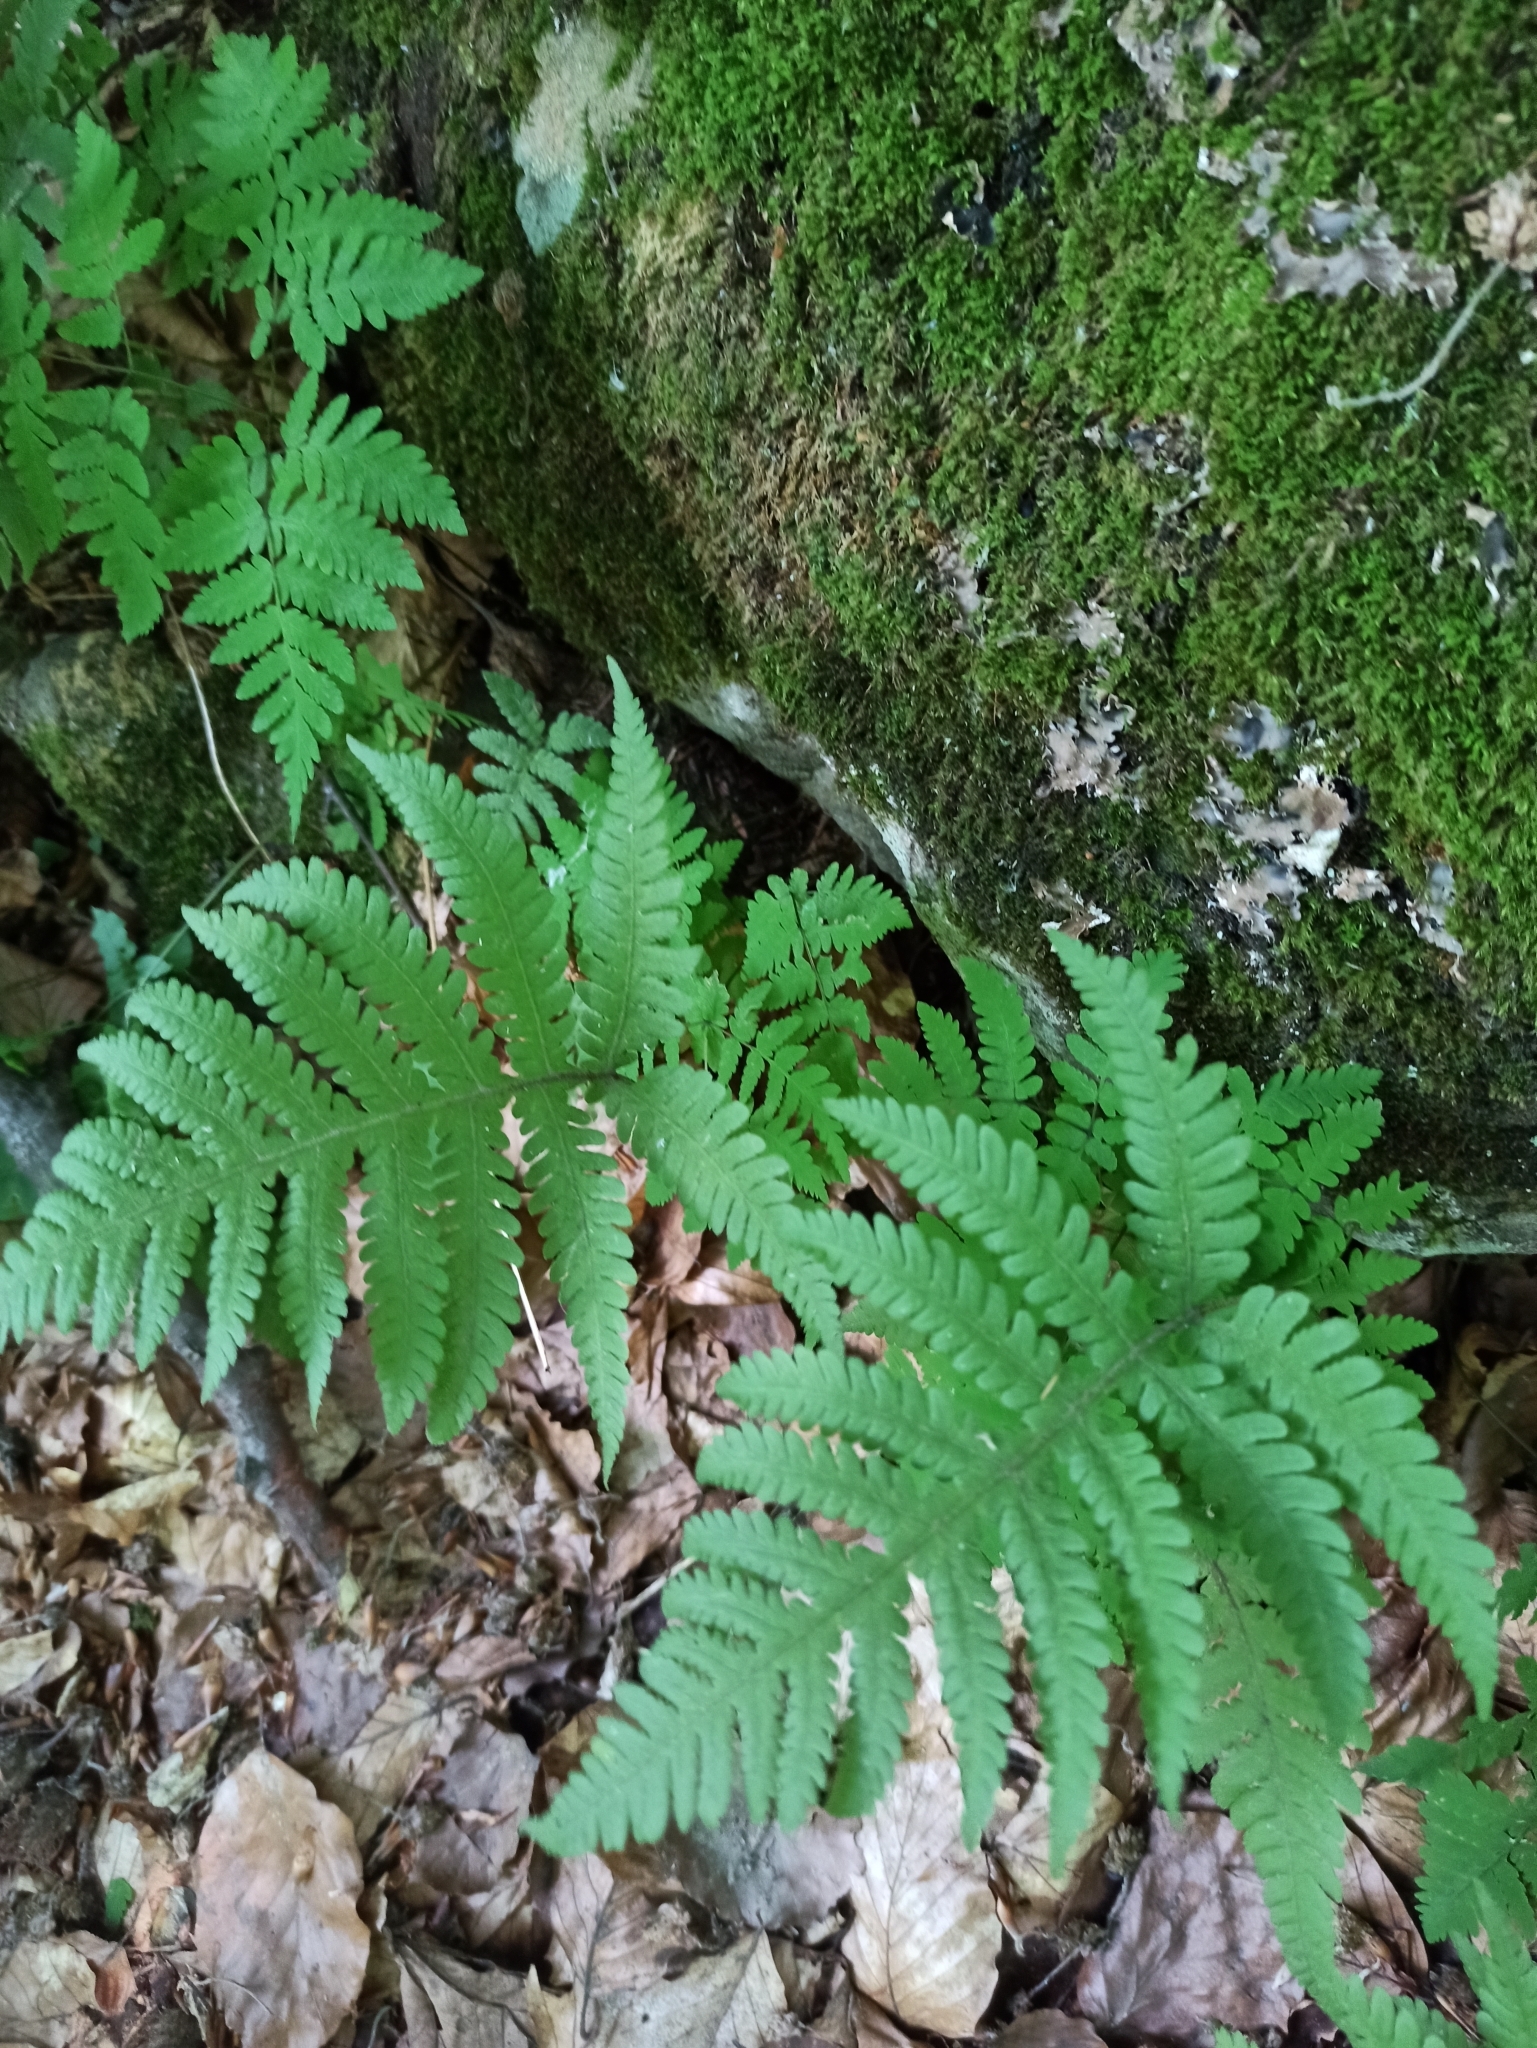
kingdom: Plantae
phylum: Tracheophyta
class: Polypodiopsida
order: Polypodiales
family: Thelypteridaceae
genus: Phegopteris
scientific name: Phegopteris connectilis
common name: Beech fern
